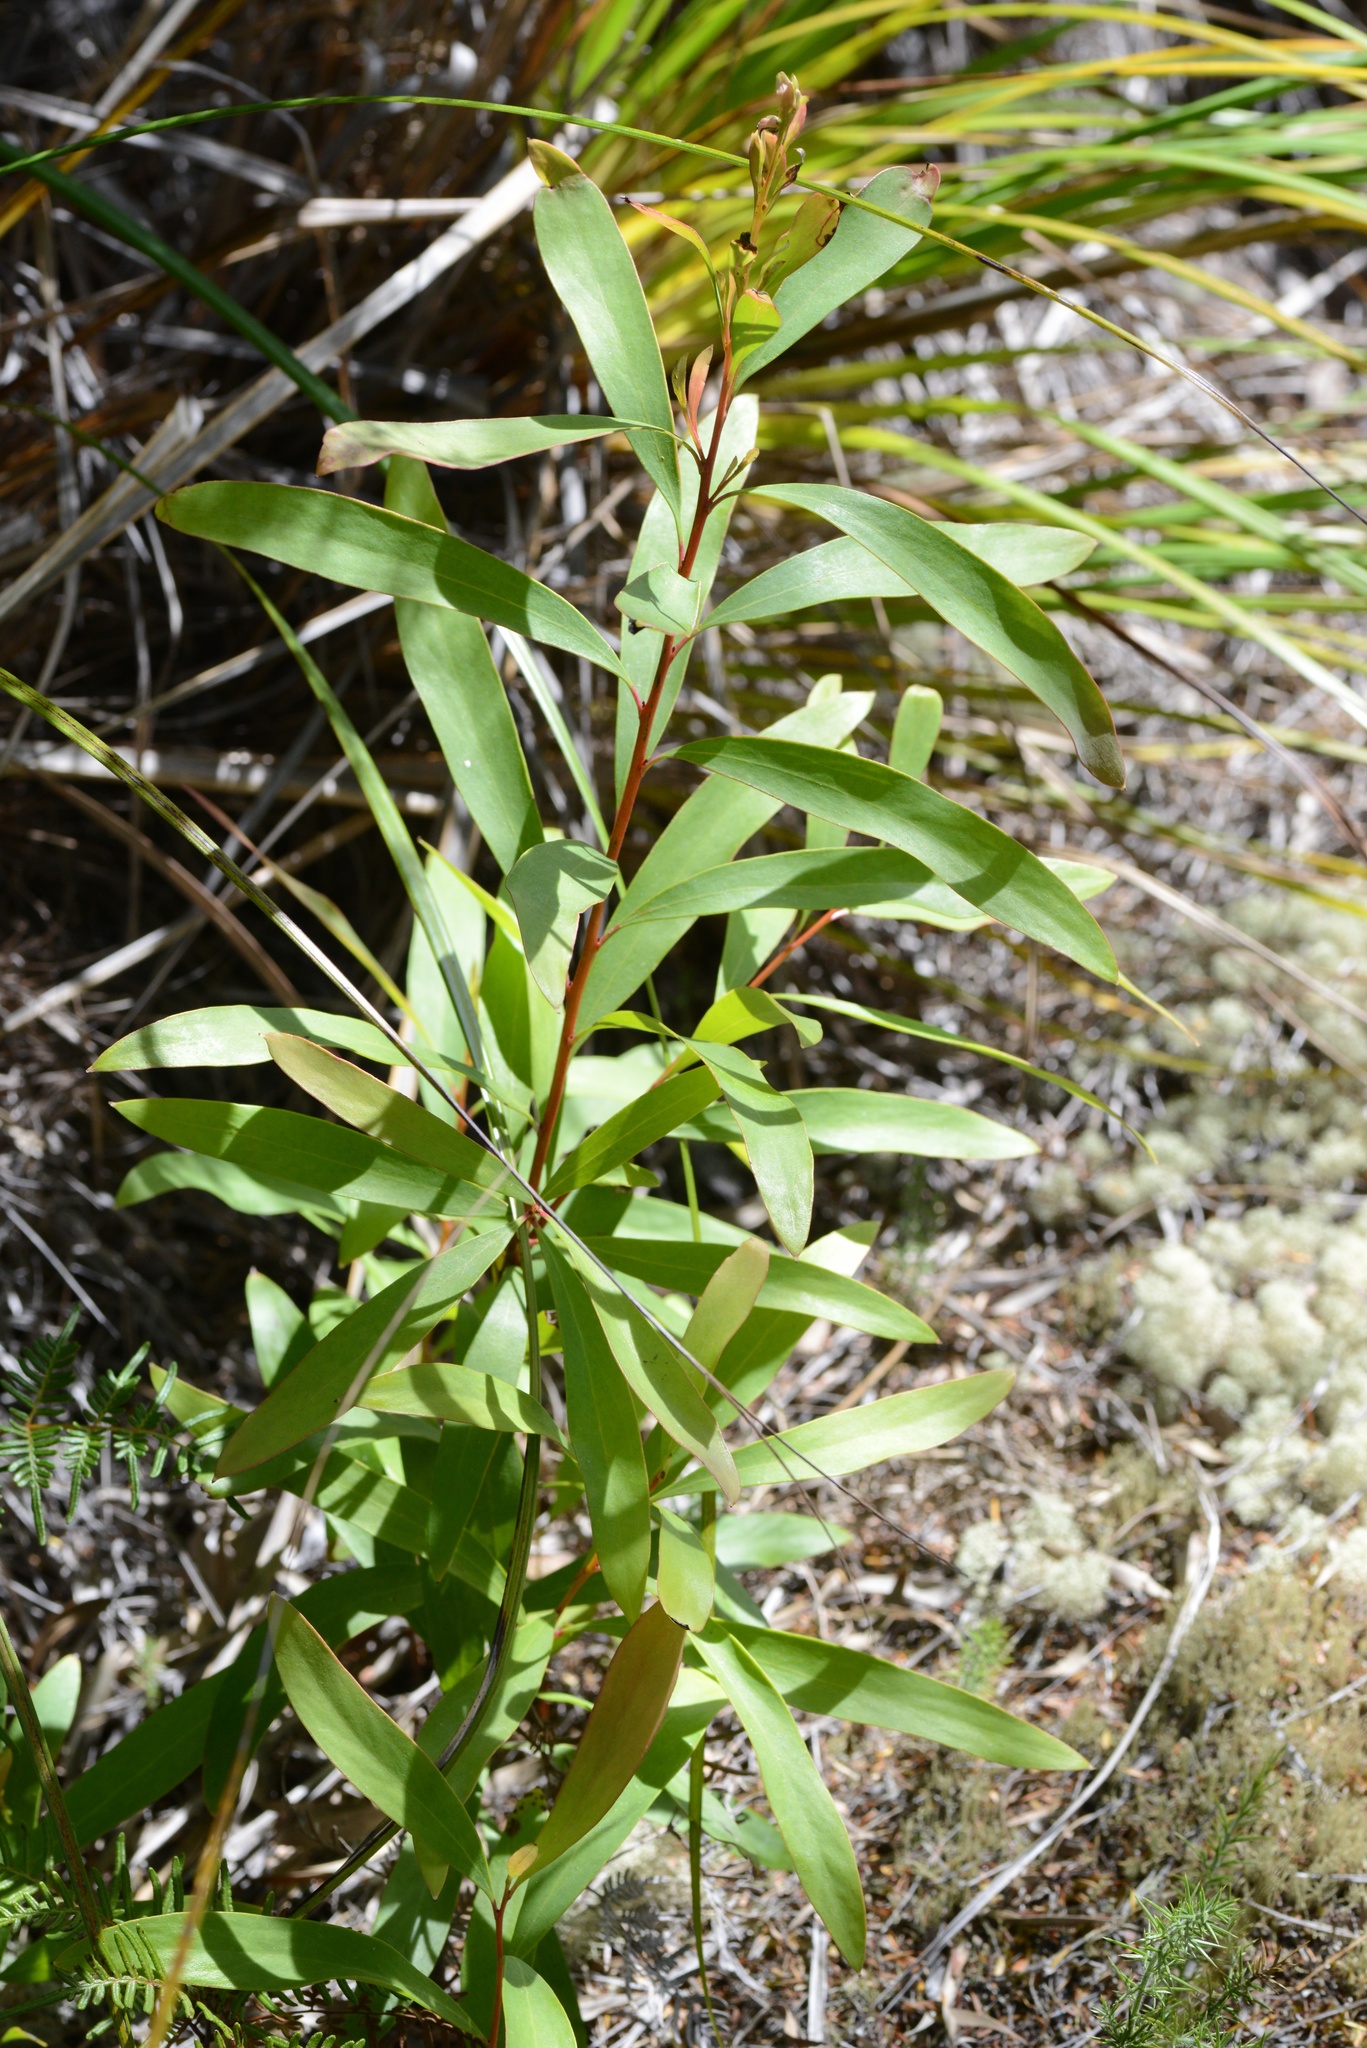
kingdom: Plantae
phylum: Tracheophyta
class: Magnoliopsida
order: Proteales
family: Proteaceae
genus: Hakea
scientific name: Hakea salicifolia
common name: Willow hakea
